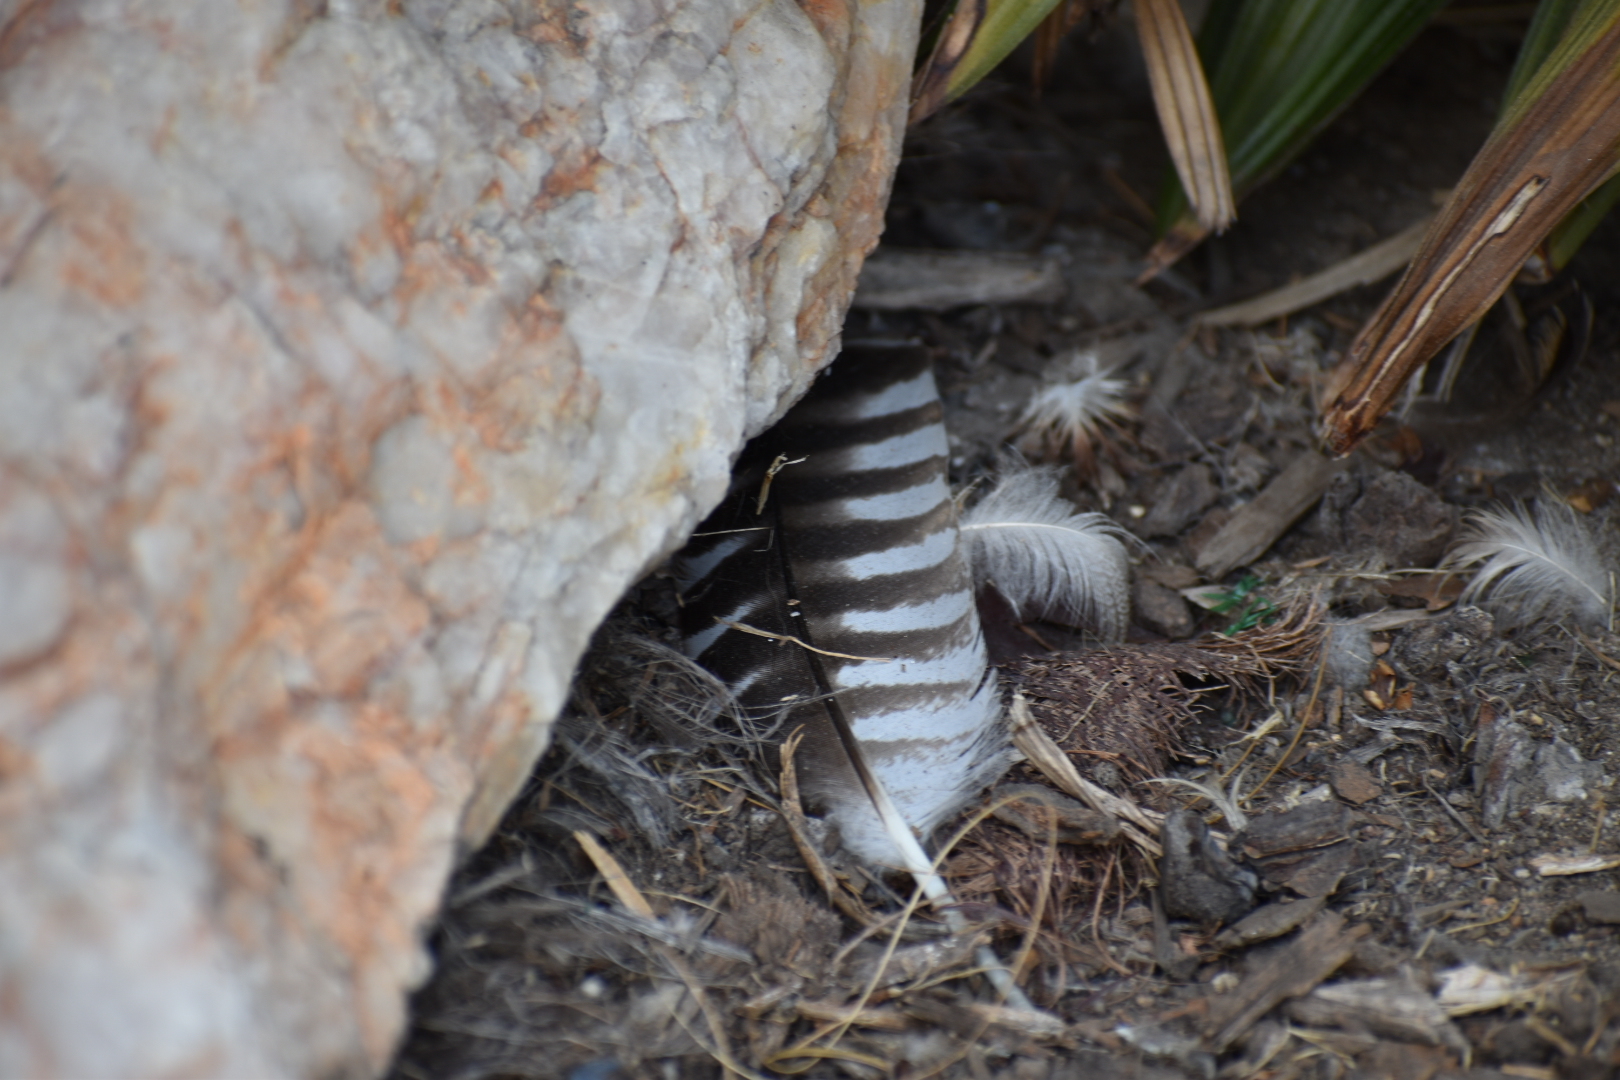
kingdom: Animalia
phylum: Chordata
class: Aves
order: Accipitriformes
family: Accipitridae
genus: Buteo
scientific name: Buteo lineatus
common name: Red-shouldered hawk
